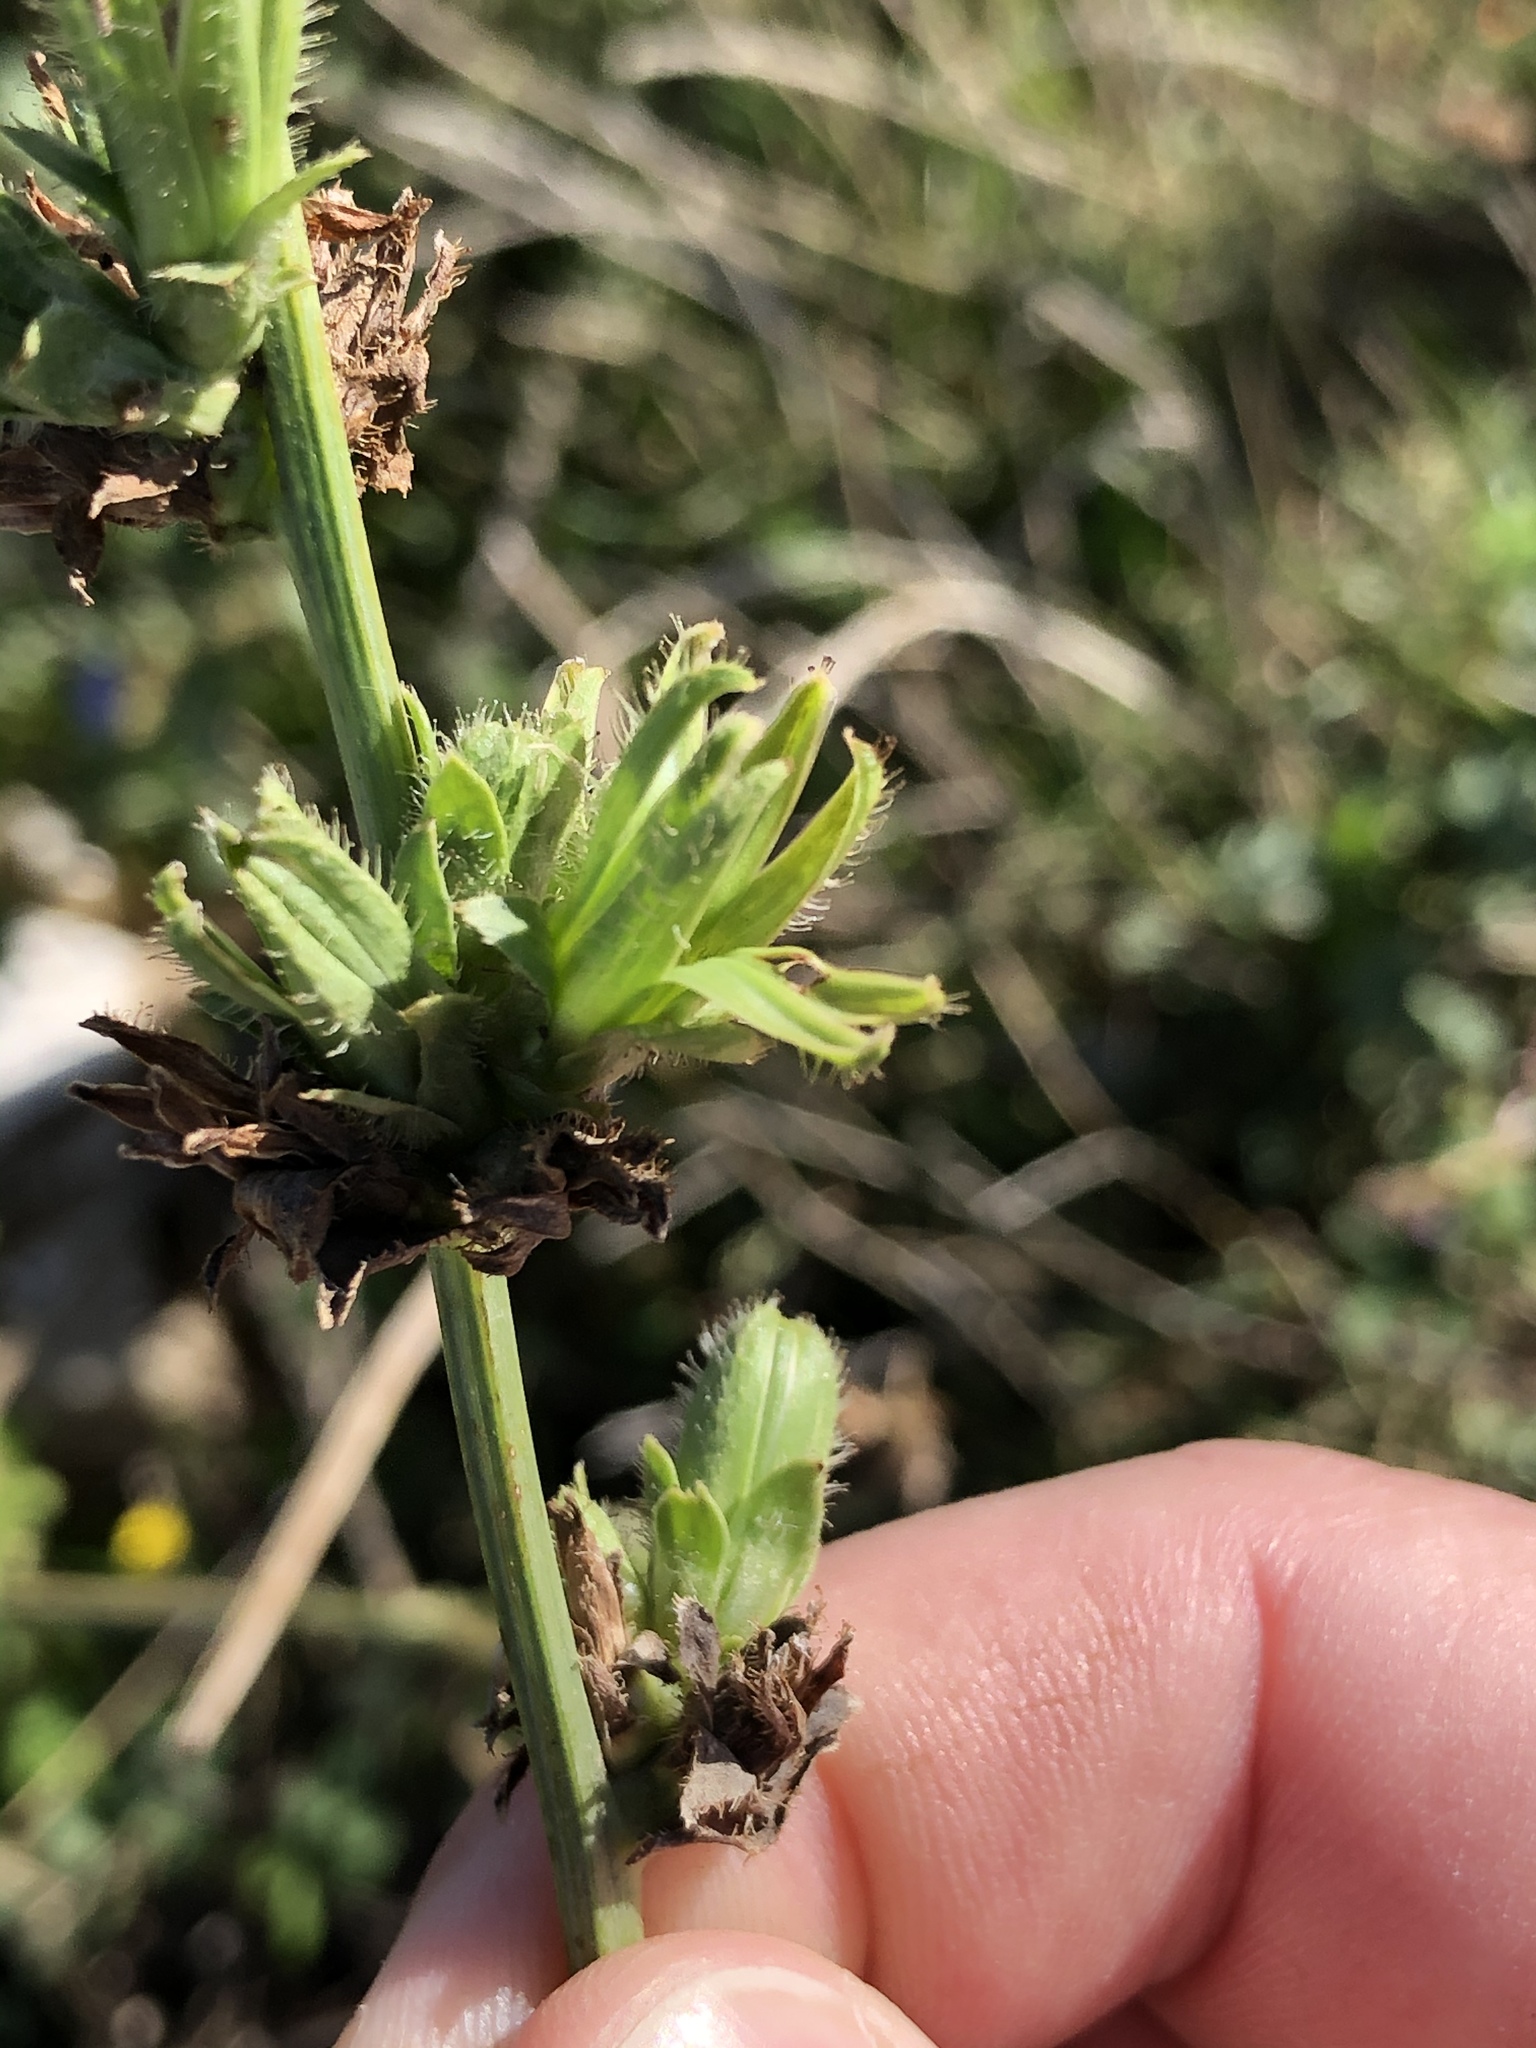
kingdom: Plantae
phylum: Tracheophyta
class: Magnoliopsida
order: Asterales
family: Asteraceae
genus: Cichorium
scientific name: Cichorium intybus
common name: Chicory
